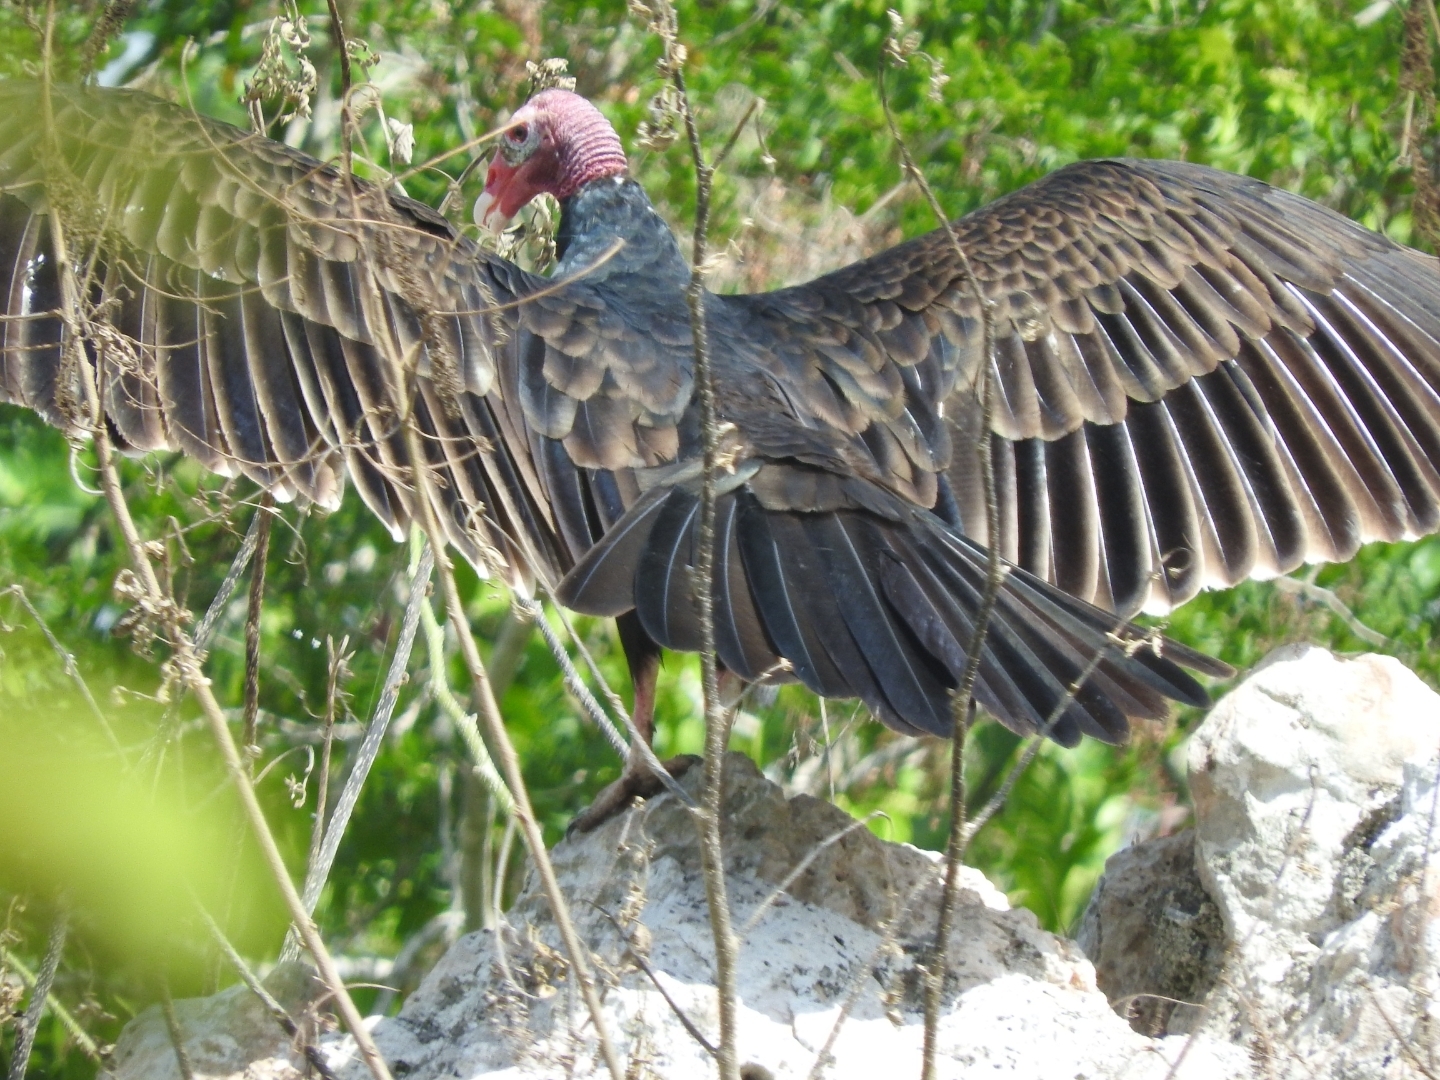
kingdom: Animalia
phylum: Chordata
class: Aves
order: Accipitriformes
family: Cathartidae
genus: Cathartes
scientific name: Cathartes aura
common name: Turkey vulture
